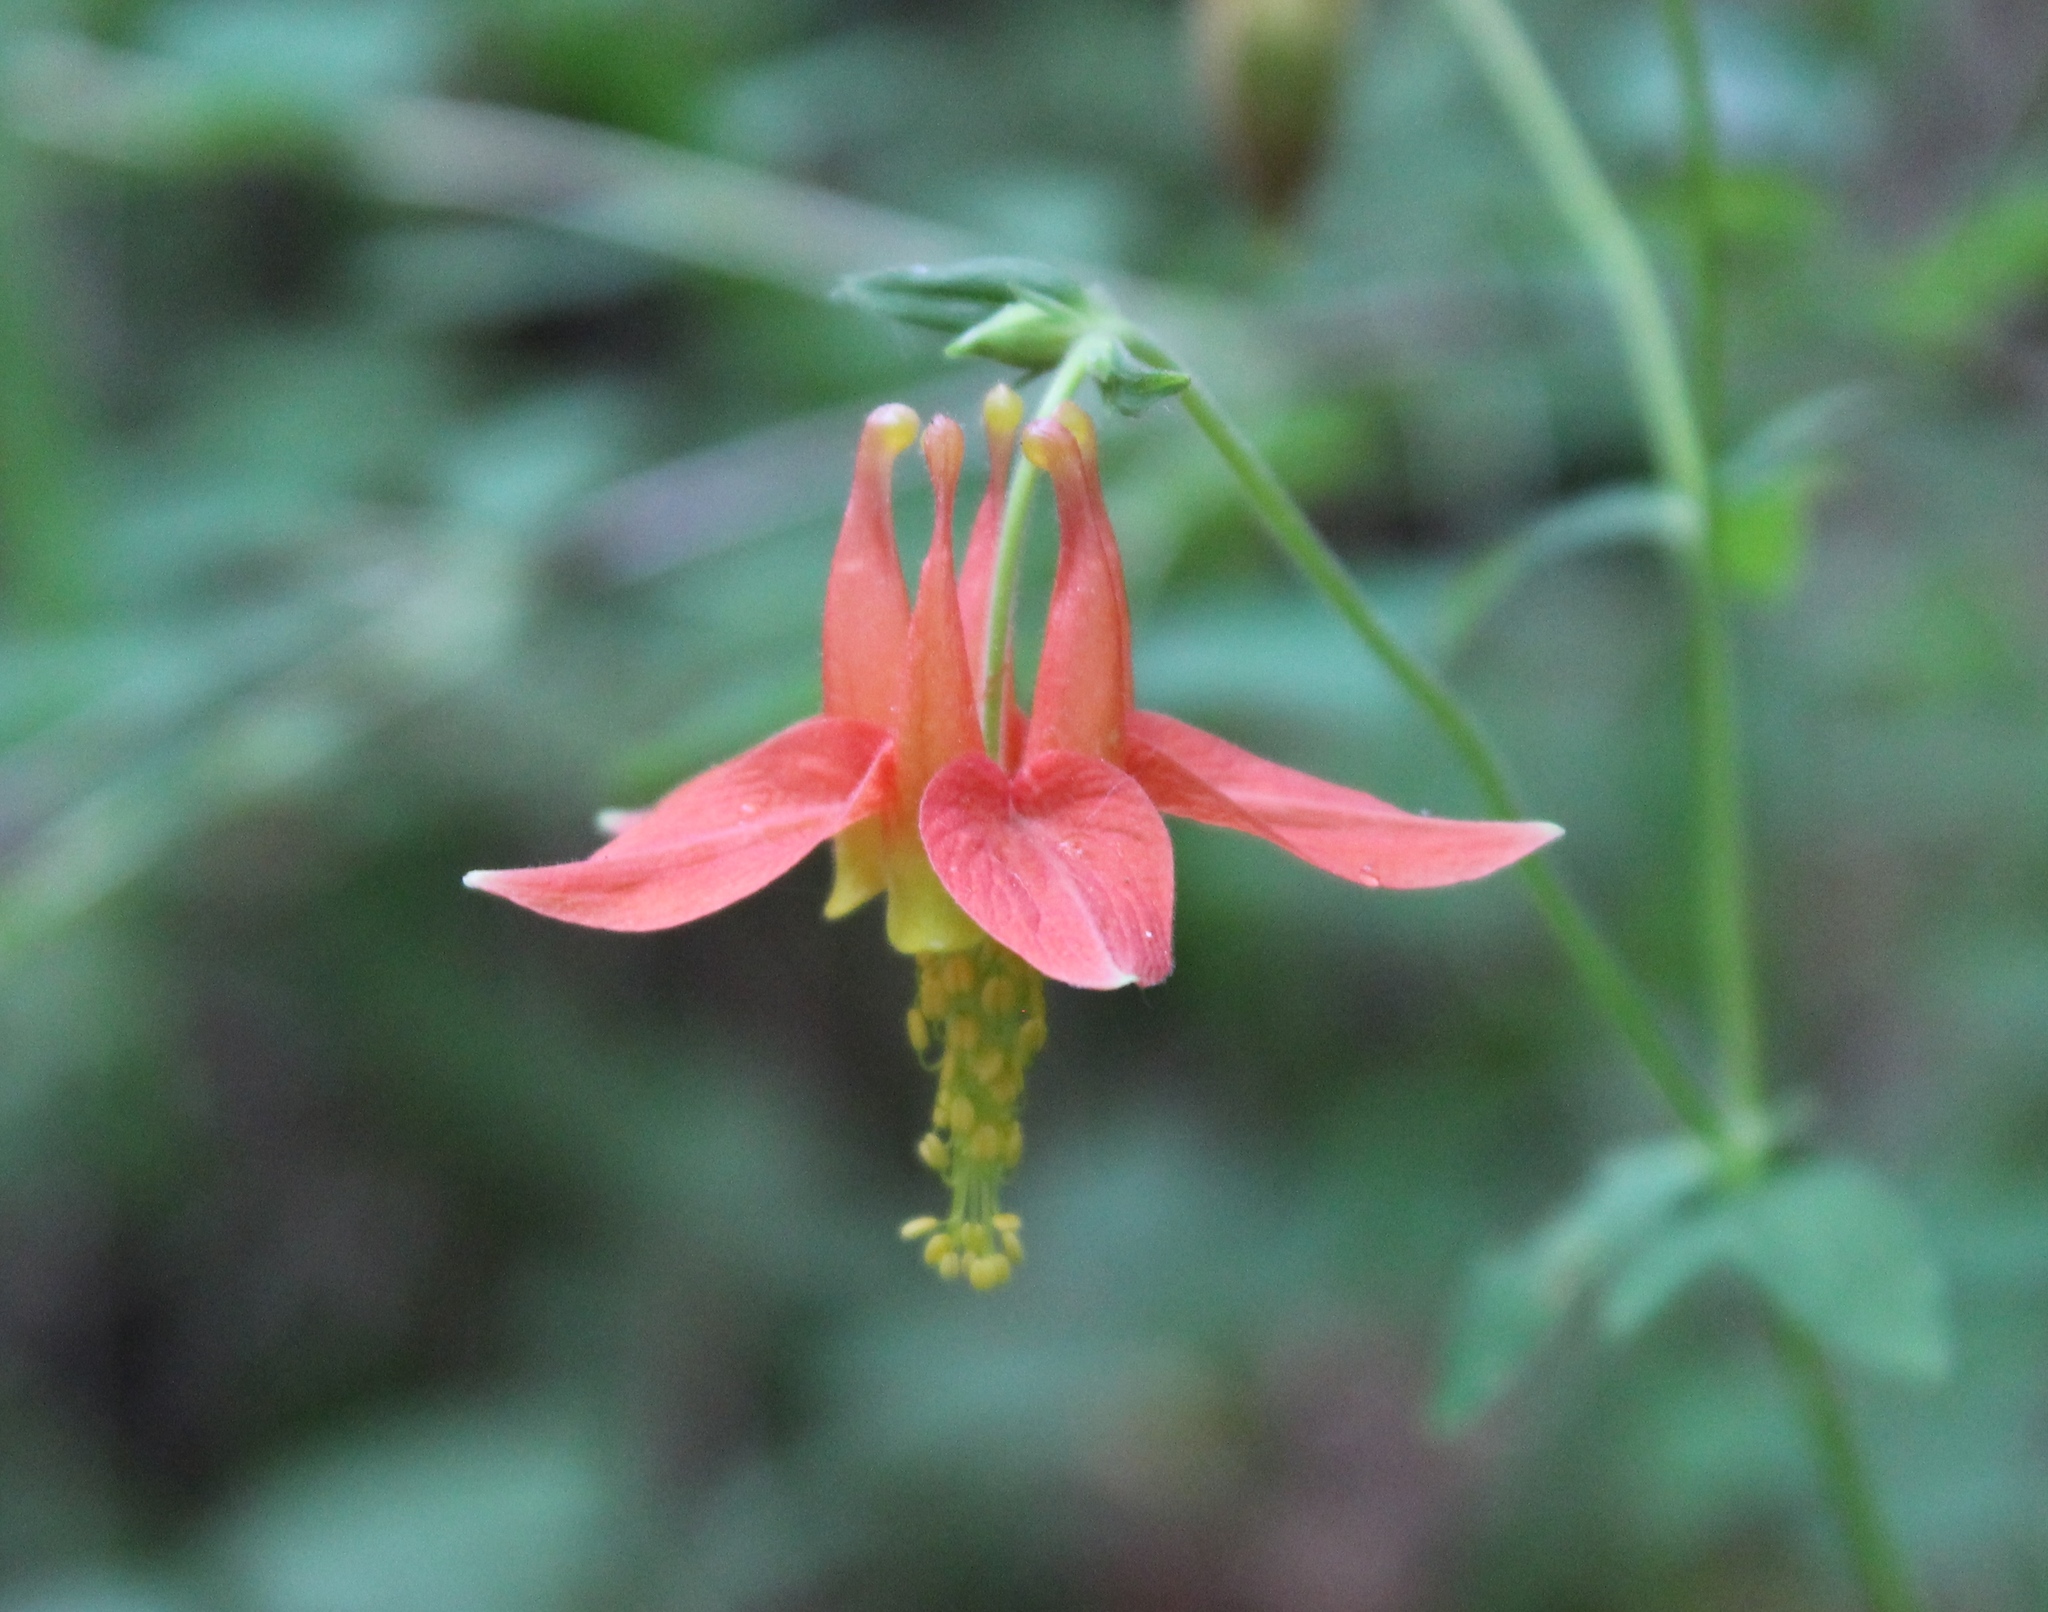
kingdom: Plantae
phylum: Tracheophyta
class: Magnoliopsida
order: Ranunculales
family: Ranunculaceae
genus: Aquilegia
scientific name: Aquilegia formosa
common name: Sitka columbine
